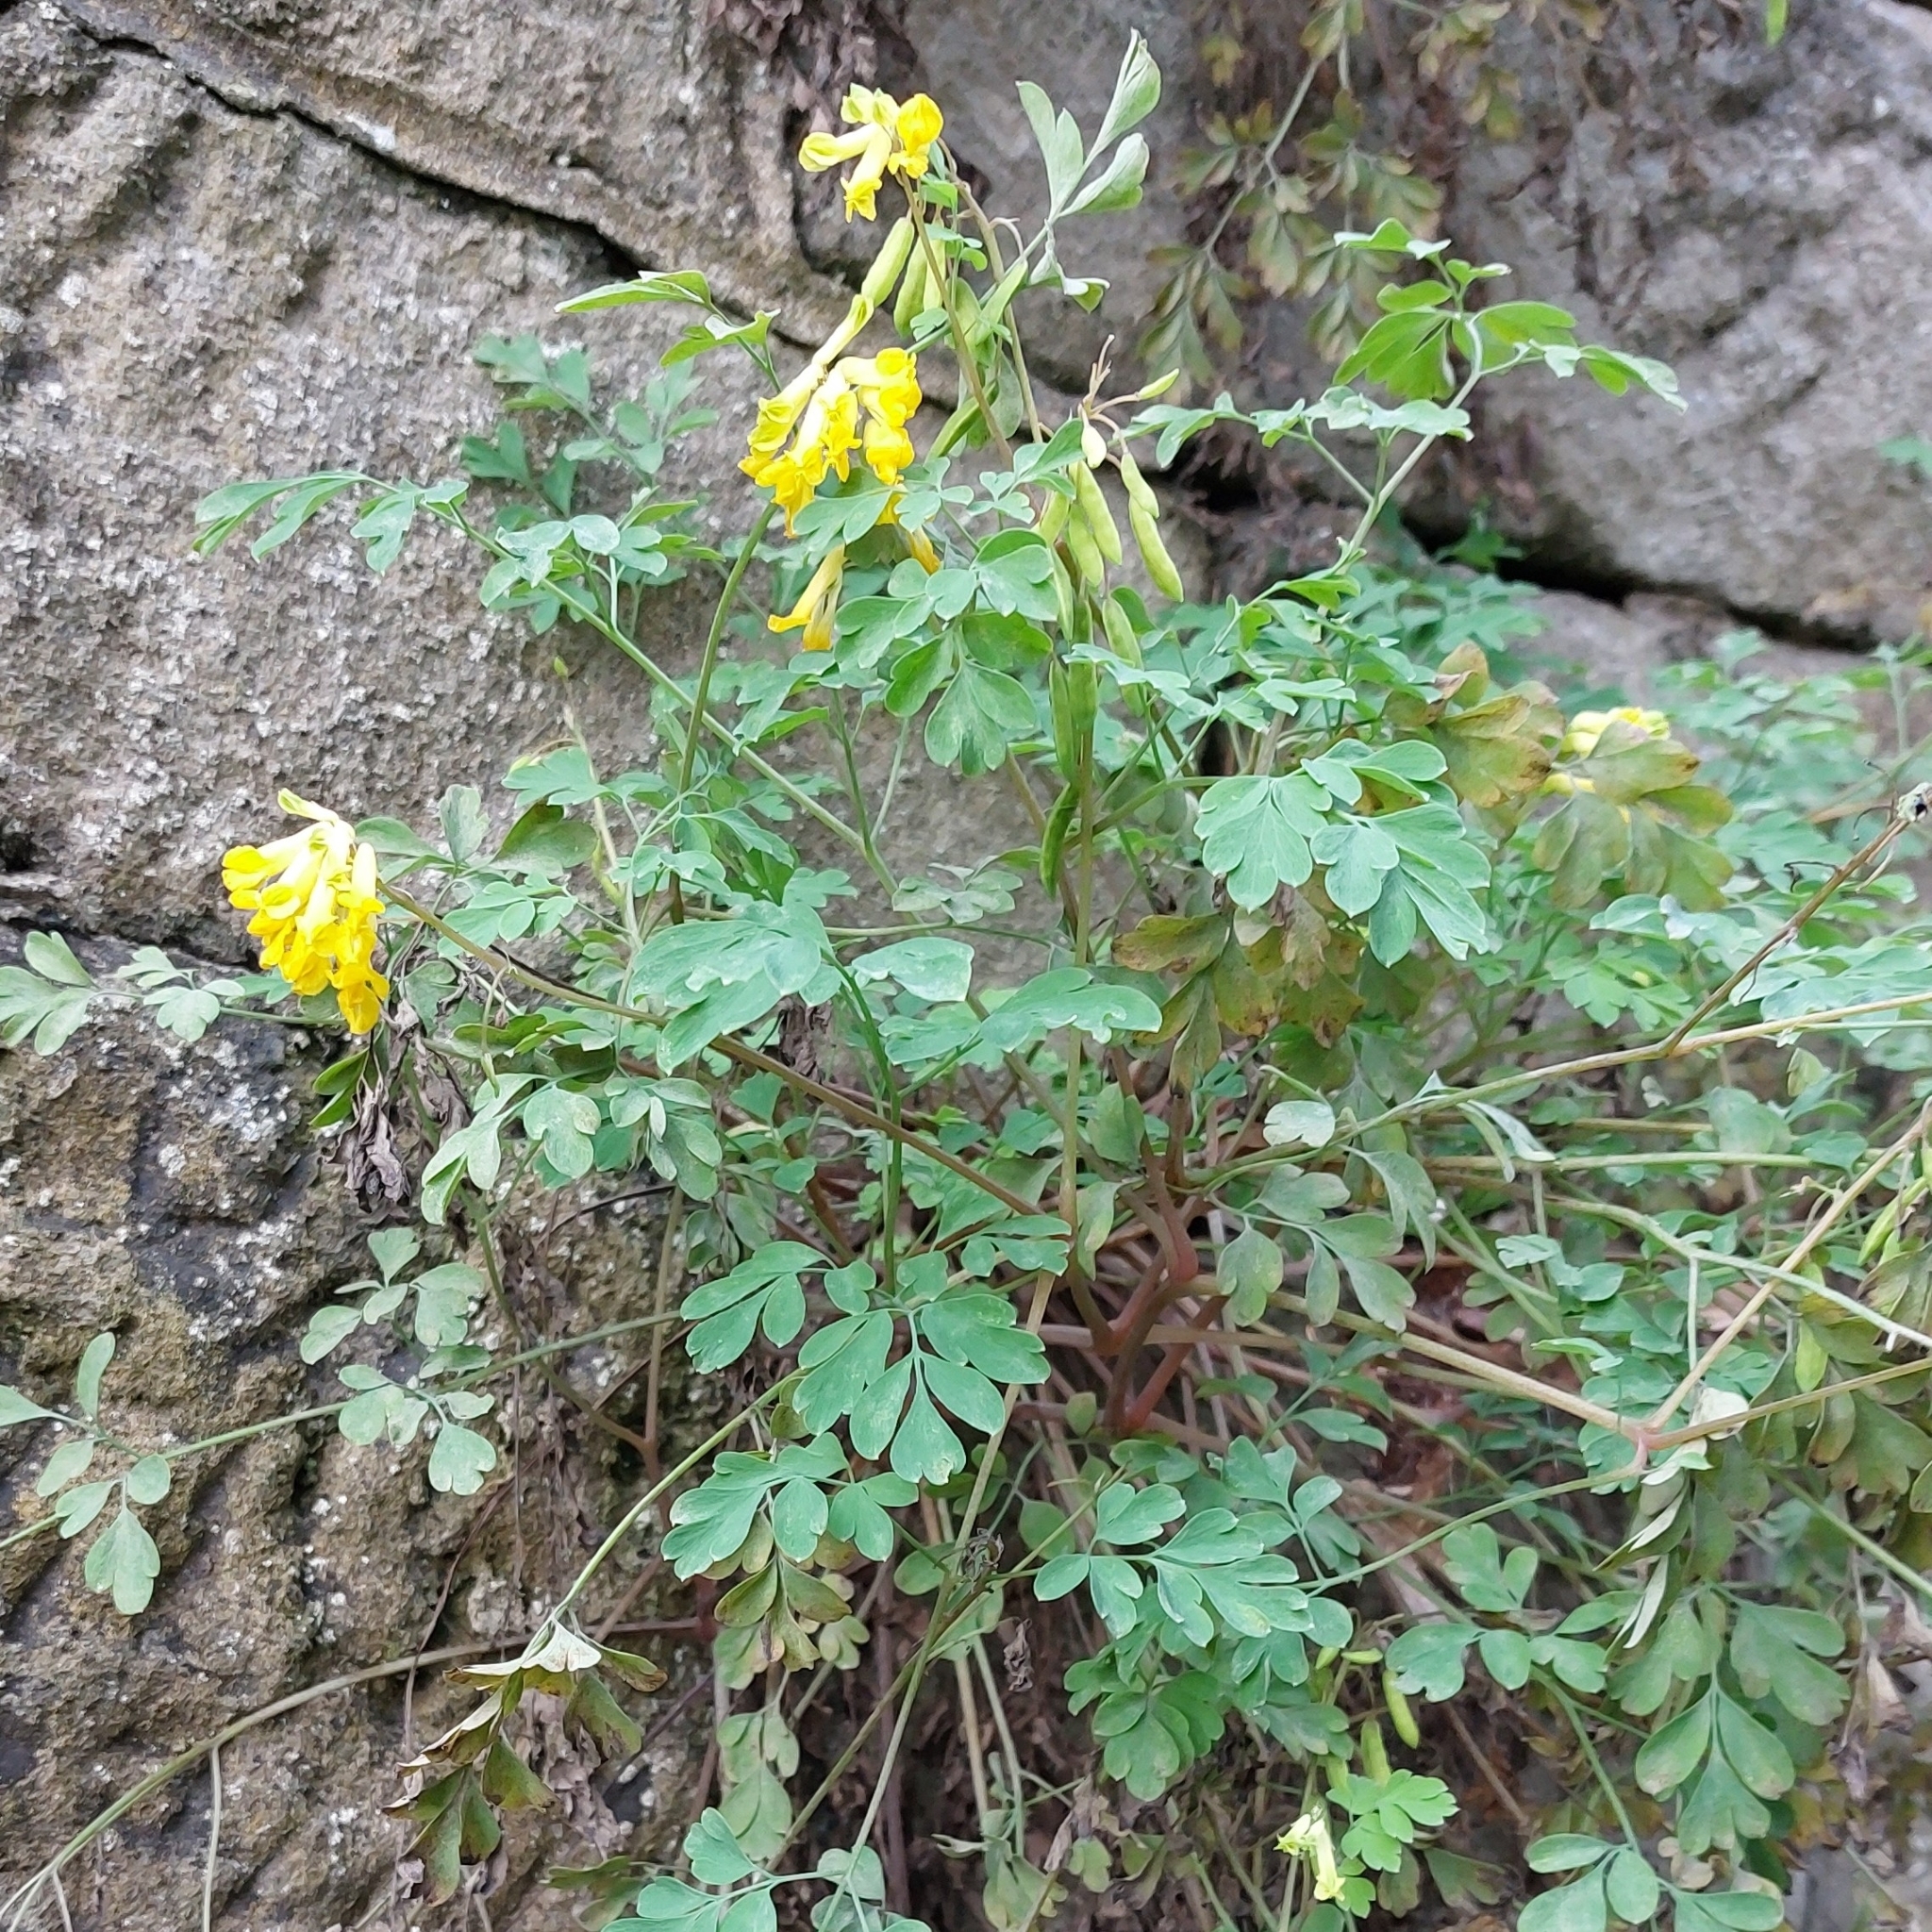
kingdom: Plantae
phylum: Tracheophyta
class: Magnoliopsida
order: Ranunculales
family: Papaveraceae
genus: Pseudofumaria
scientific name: Pseudofumaria lutea
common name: Yellow corydalis
